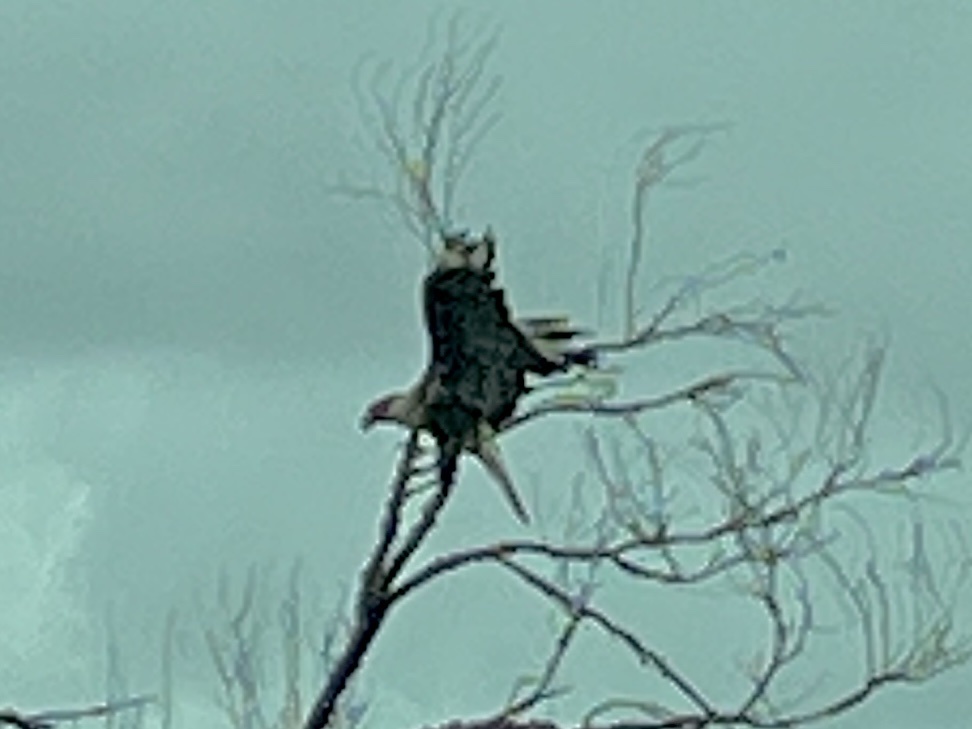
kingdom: Animalia
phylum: Chordata
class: Aves
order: Falconiformes
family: Falconidae
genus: Caracara
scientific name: Caracara plancus
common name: Southern caracara
